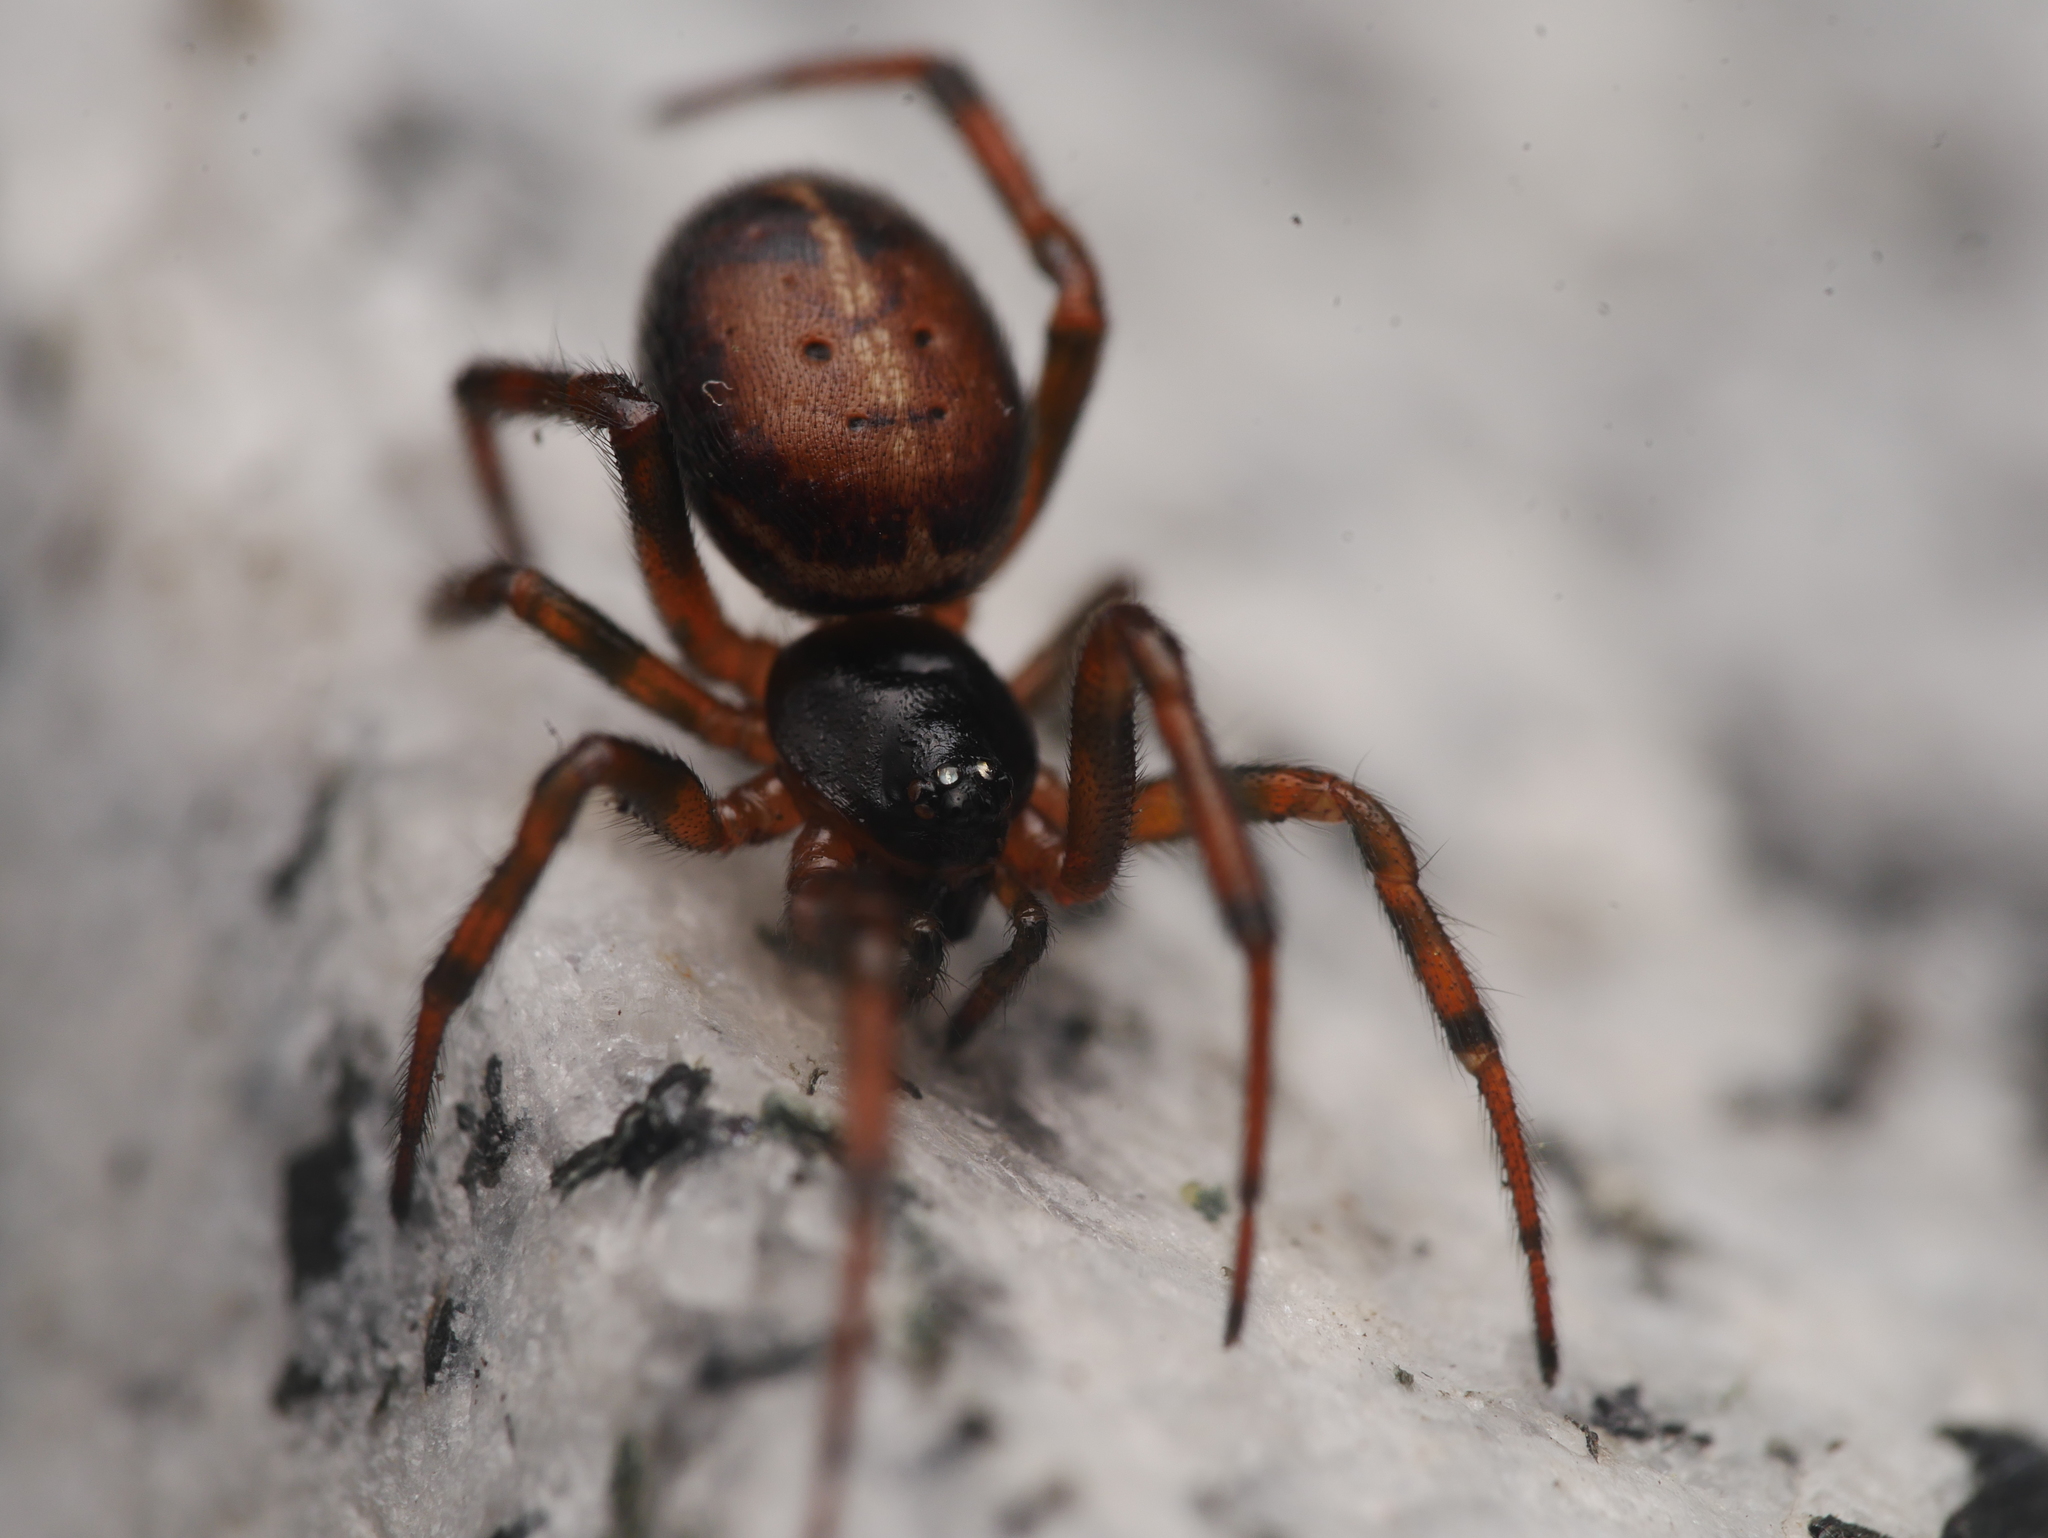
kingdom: Animalia
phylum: Arthropoda
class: Arachnida
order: Araneae
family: Theridiidae
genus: Steatoda
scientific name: Steatoda bipunctata
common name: False widow
